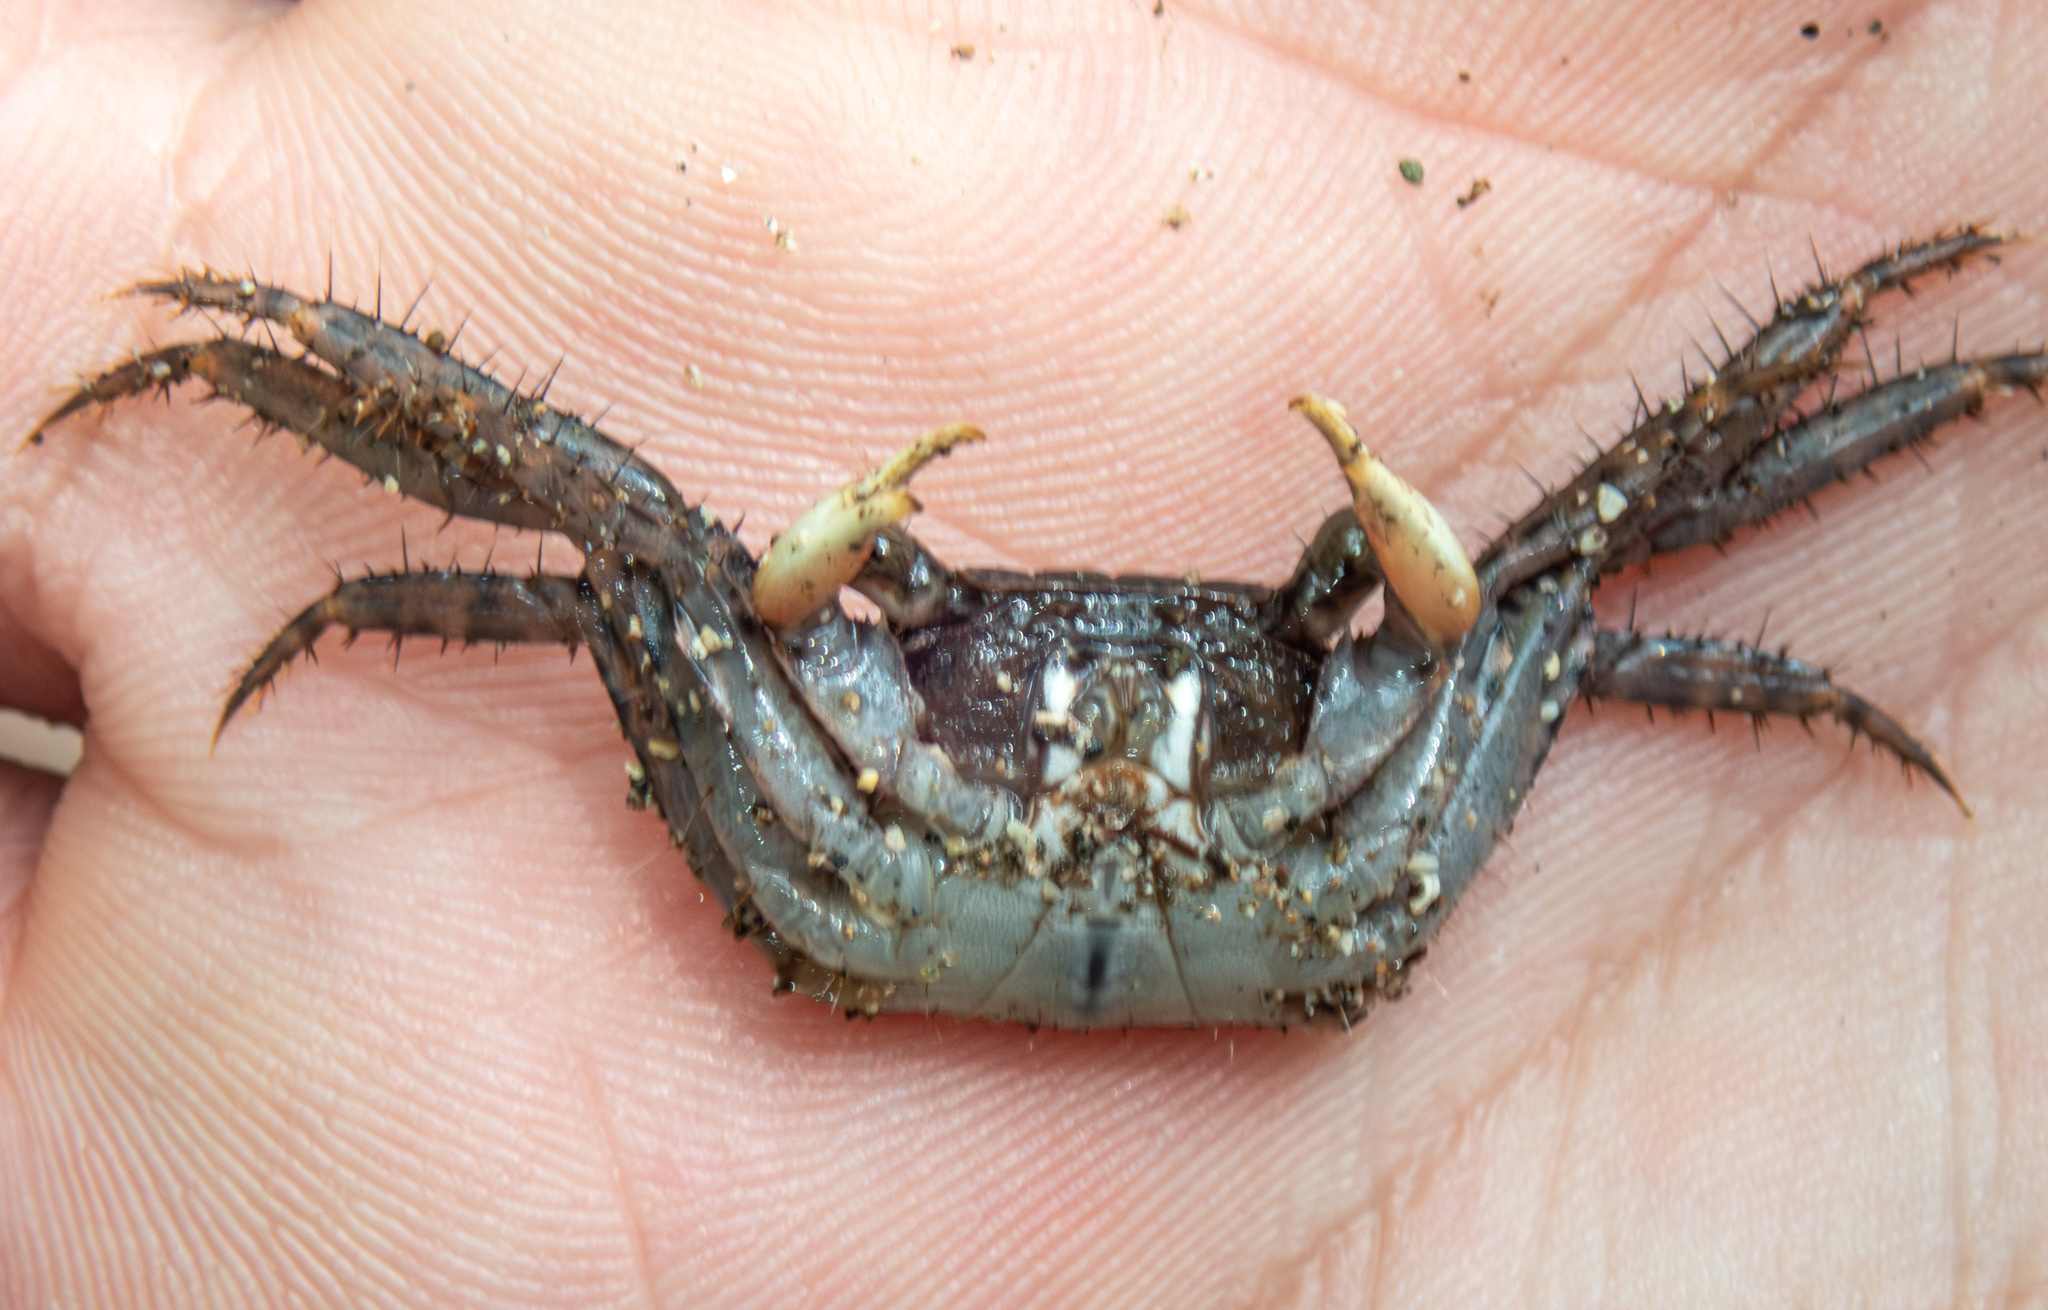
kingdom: Animalia
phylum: Arthropoda
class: Malacostraca
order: Decapoda
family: Grapsidae
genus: Goniopsis
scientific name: Goniopsis pulchra
